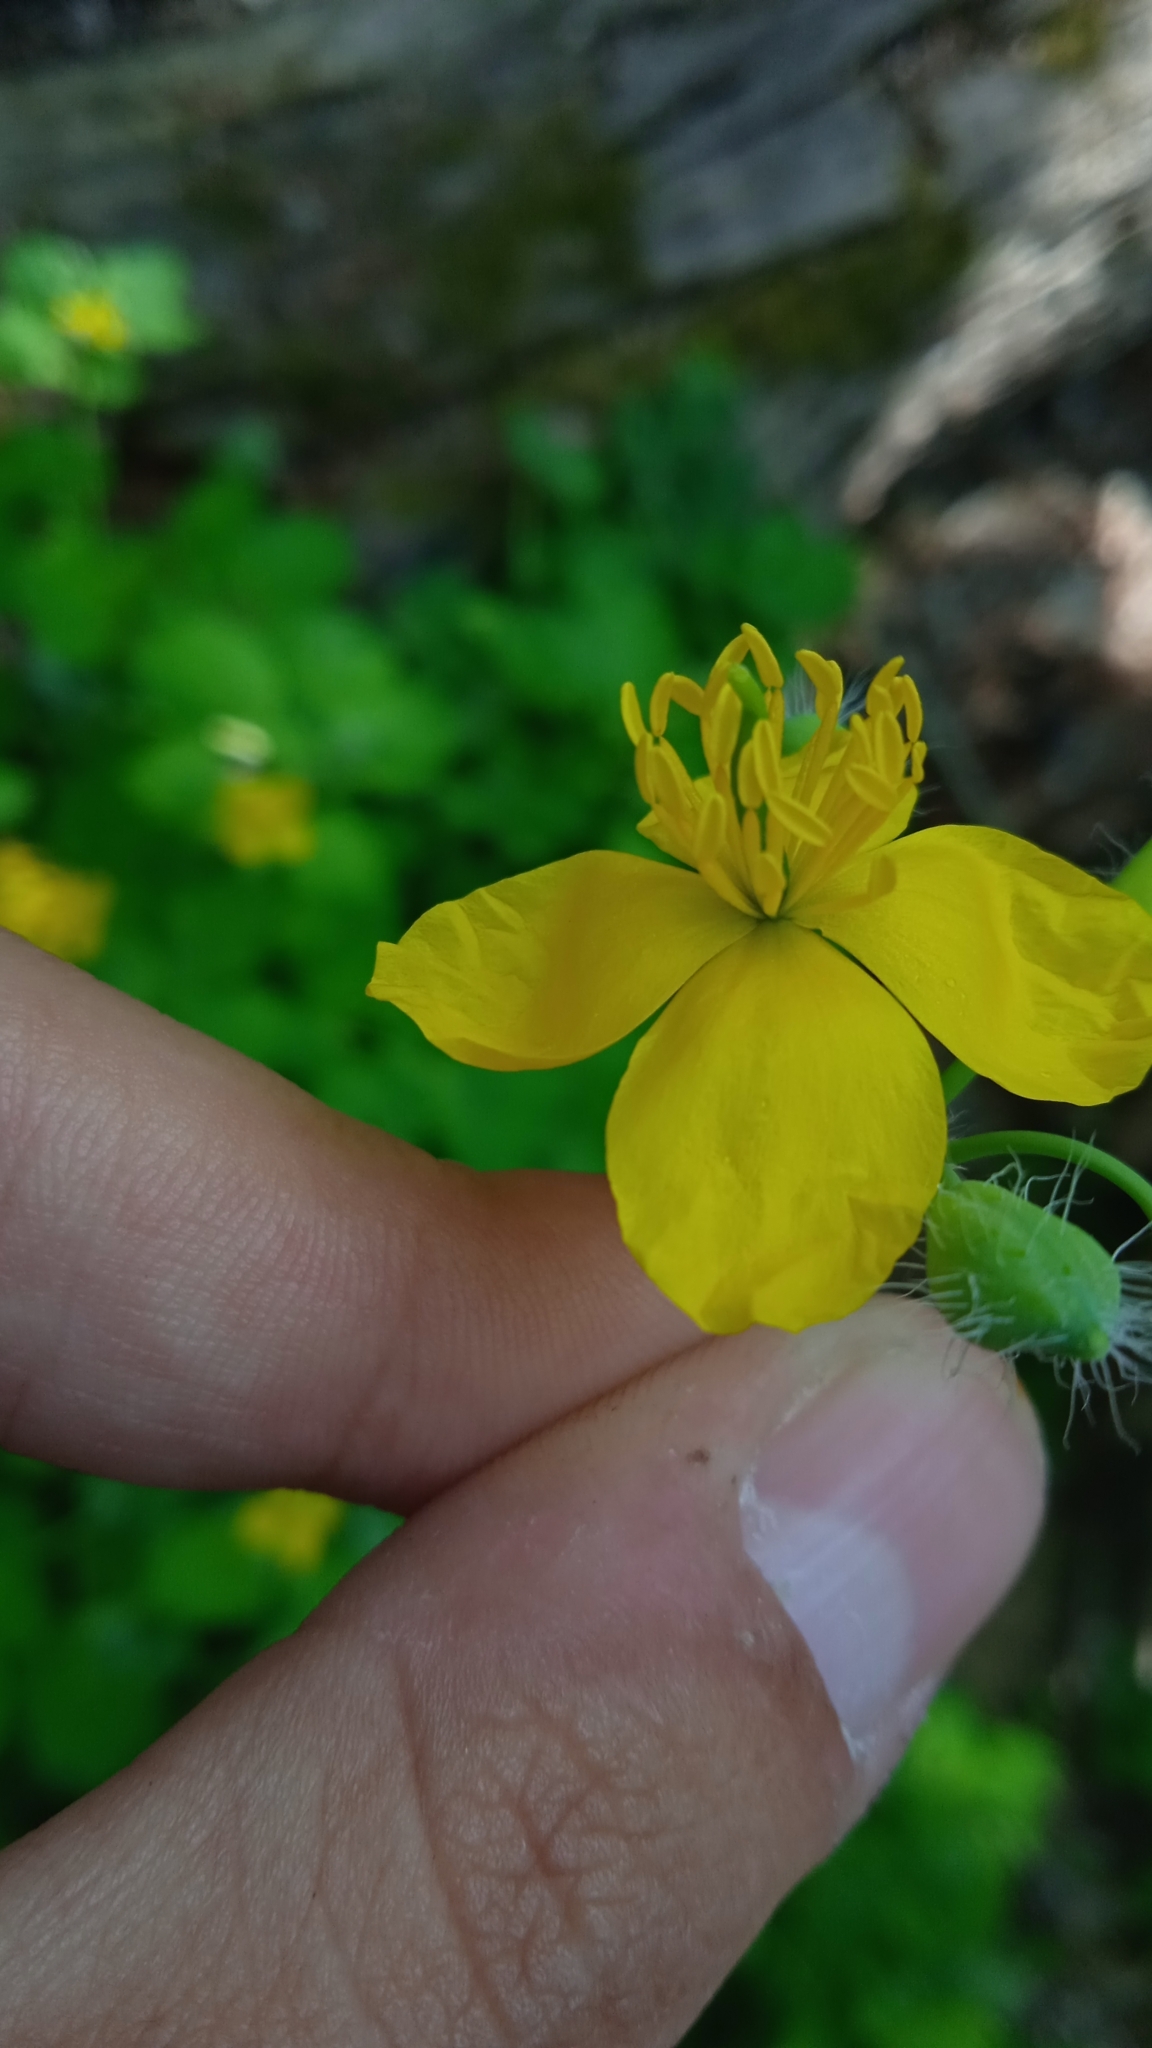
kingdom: Plantae
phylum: Tracheophyta
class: Magnoliopsida
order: Ranunculales
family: Papaveraceae
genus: Chelidonium
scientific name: Chelidonium majus
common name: Greater celandine
